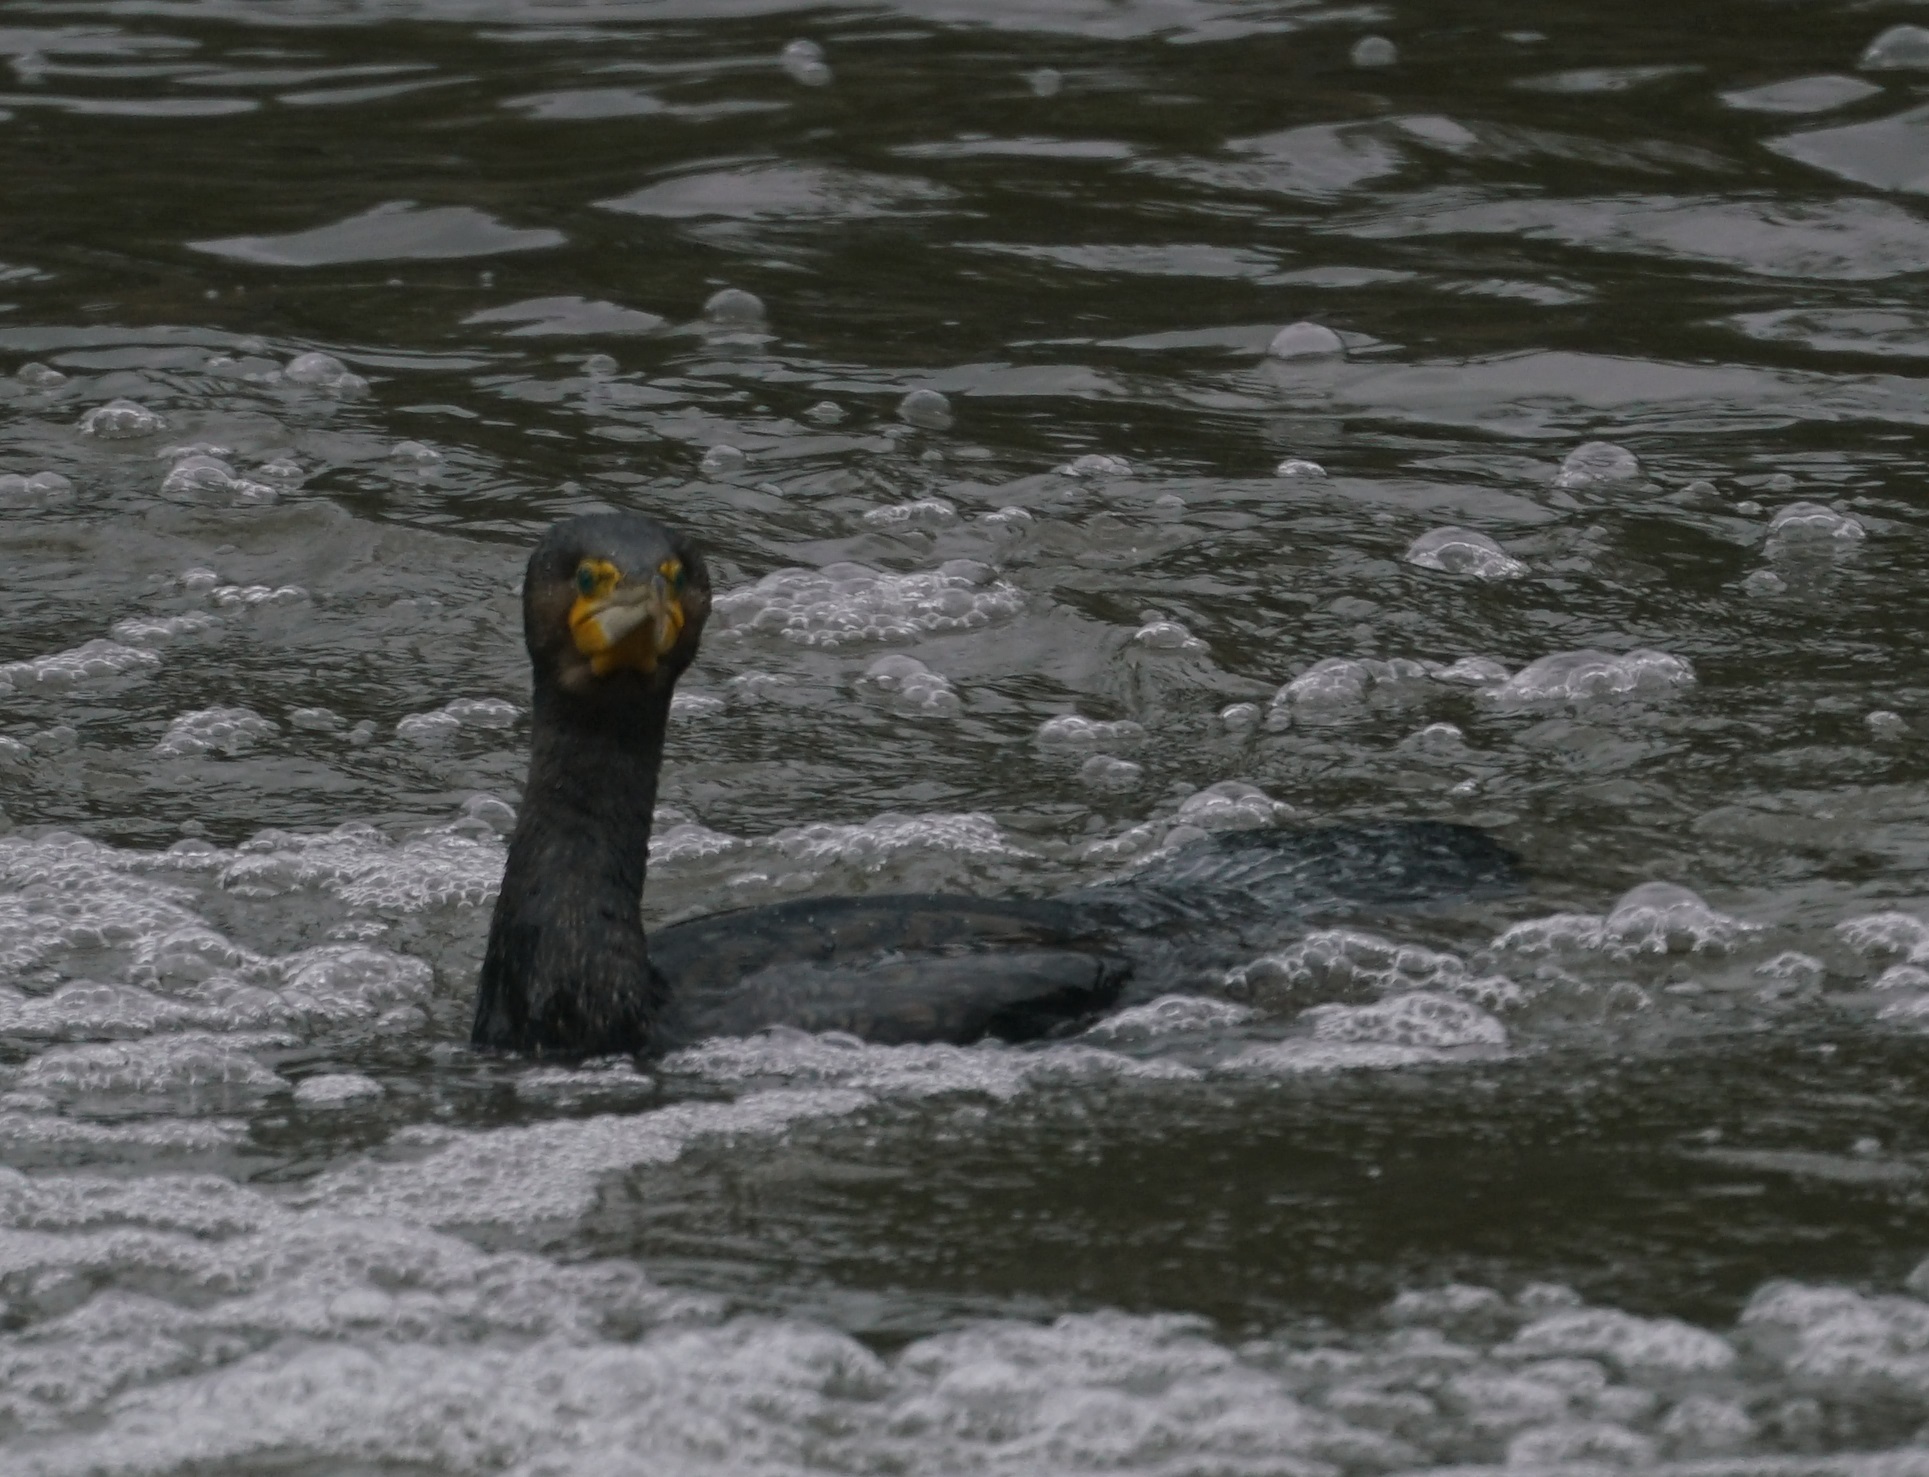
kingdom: Animalia
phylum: Chordata
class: Aves
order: Suliformes
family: Phalacrocoracidae
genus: Phalacrocorax
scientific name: Phalacrocorax carbo
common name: Great cormorant
